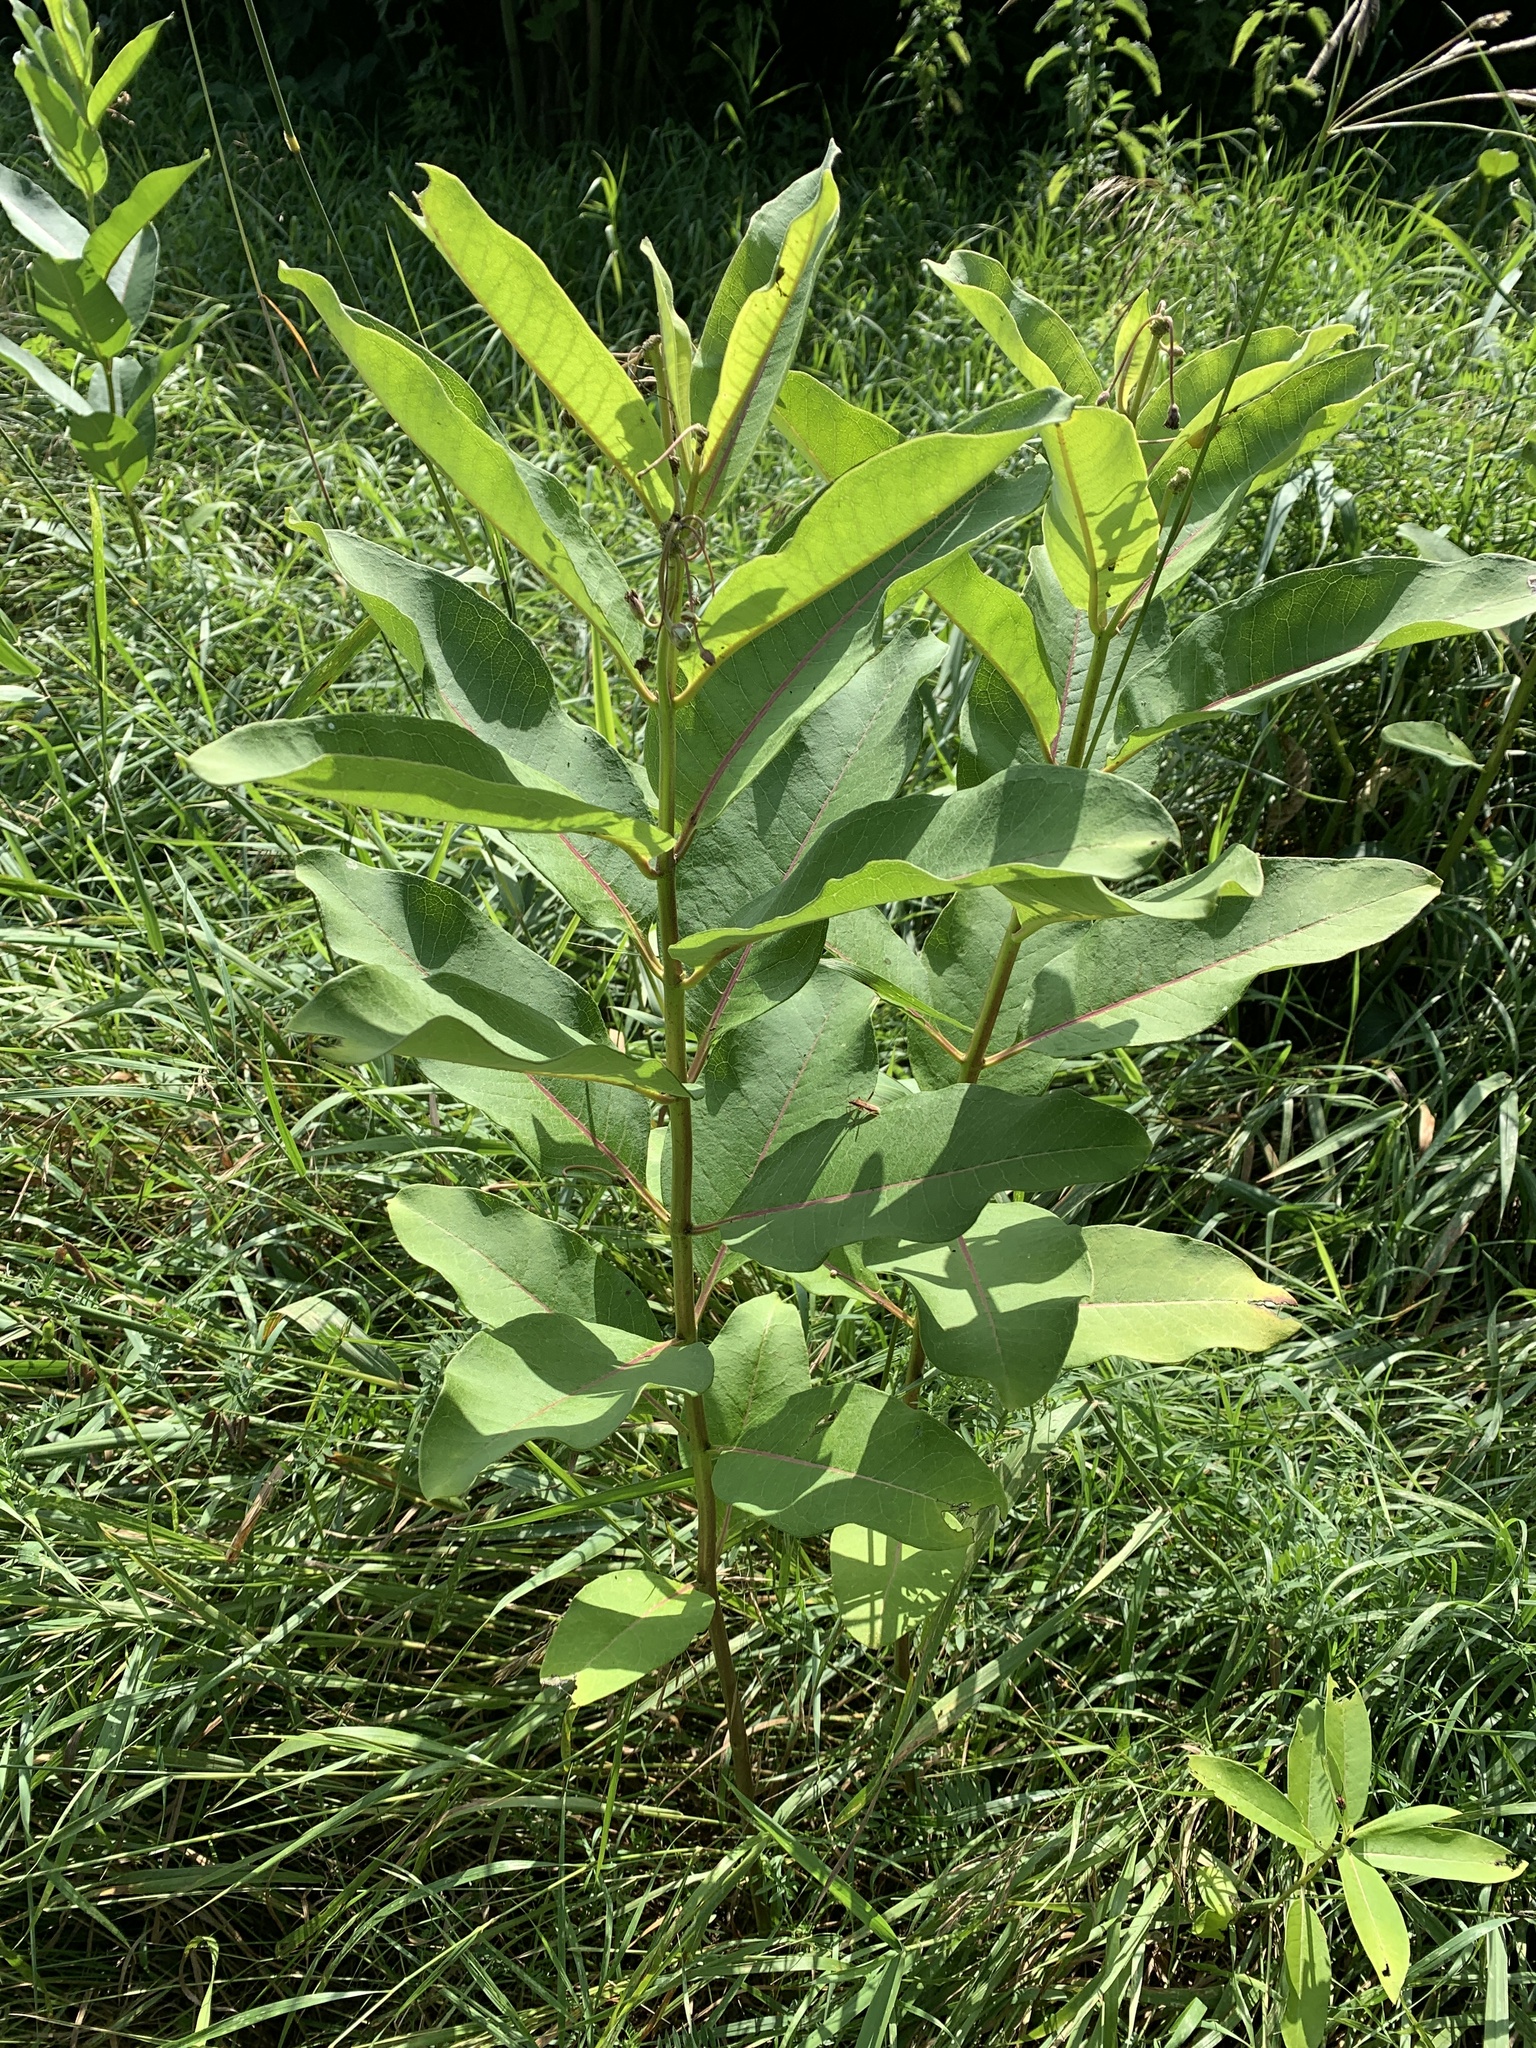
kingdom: Plantae
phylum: Tracheophyta
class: Magnoliopsida
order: Gentianales
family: Apocynaceae
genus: Asclepias
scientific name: Asclepias syriaca
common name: Common milkweed
